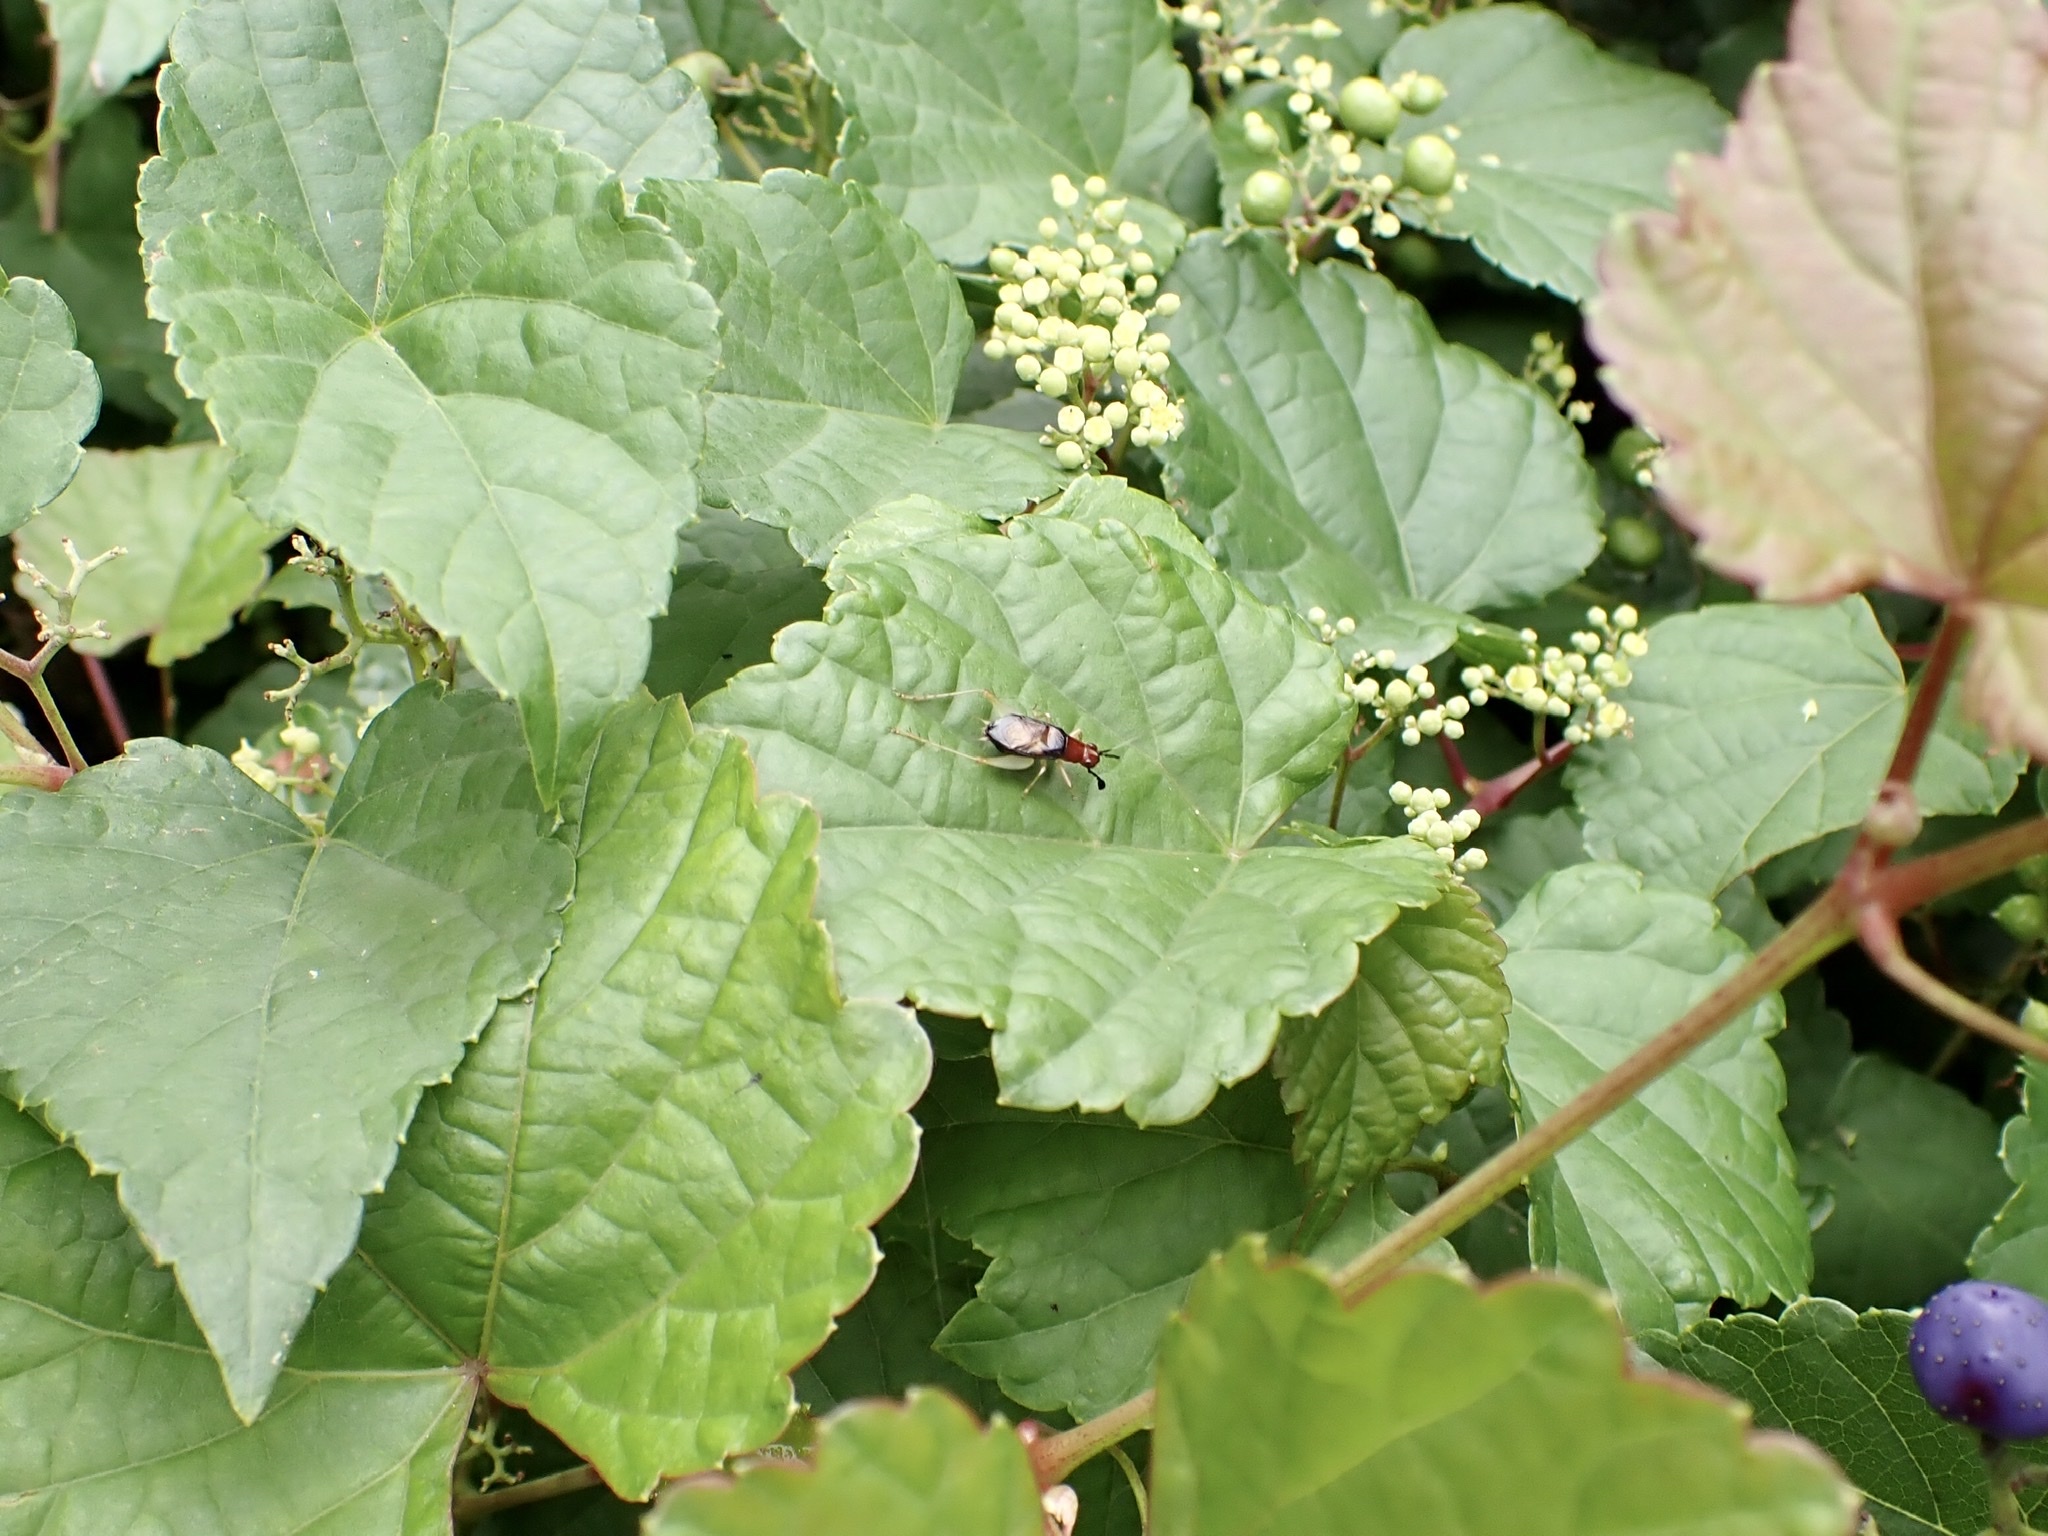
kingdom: Animalia
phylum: Arthropoda
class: Insecta
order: Orthoptera
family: Trigonidiidae
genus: Phyllopalpus
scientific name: Phyllopalpus pulchellus
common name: Handsome trig
